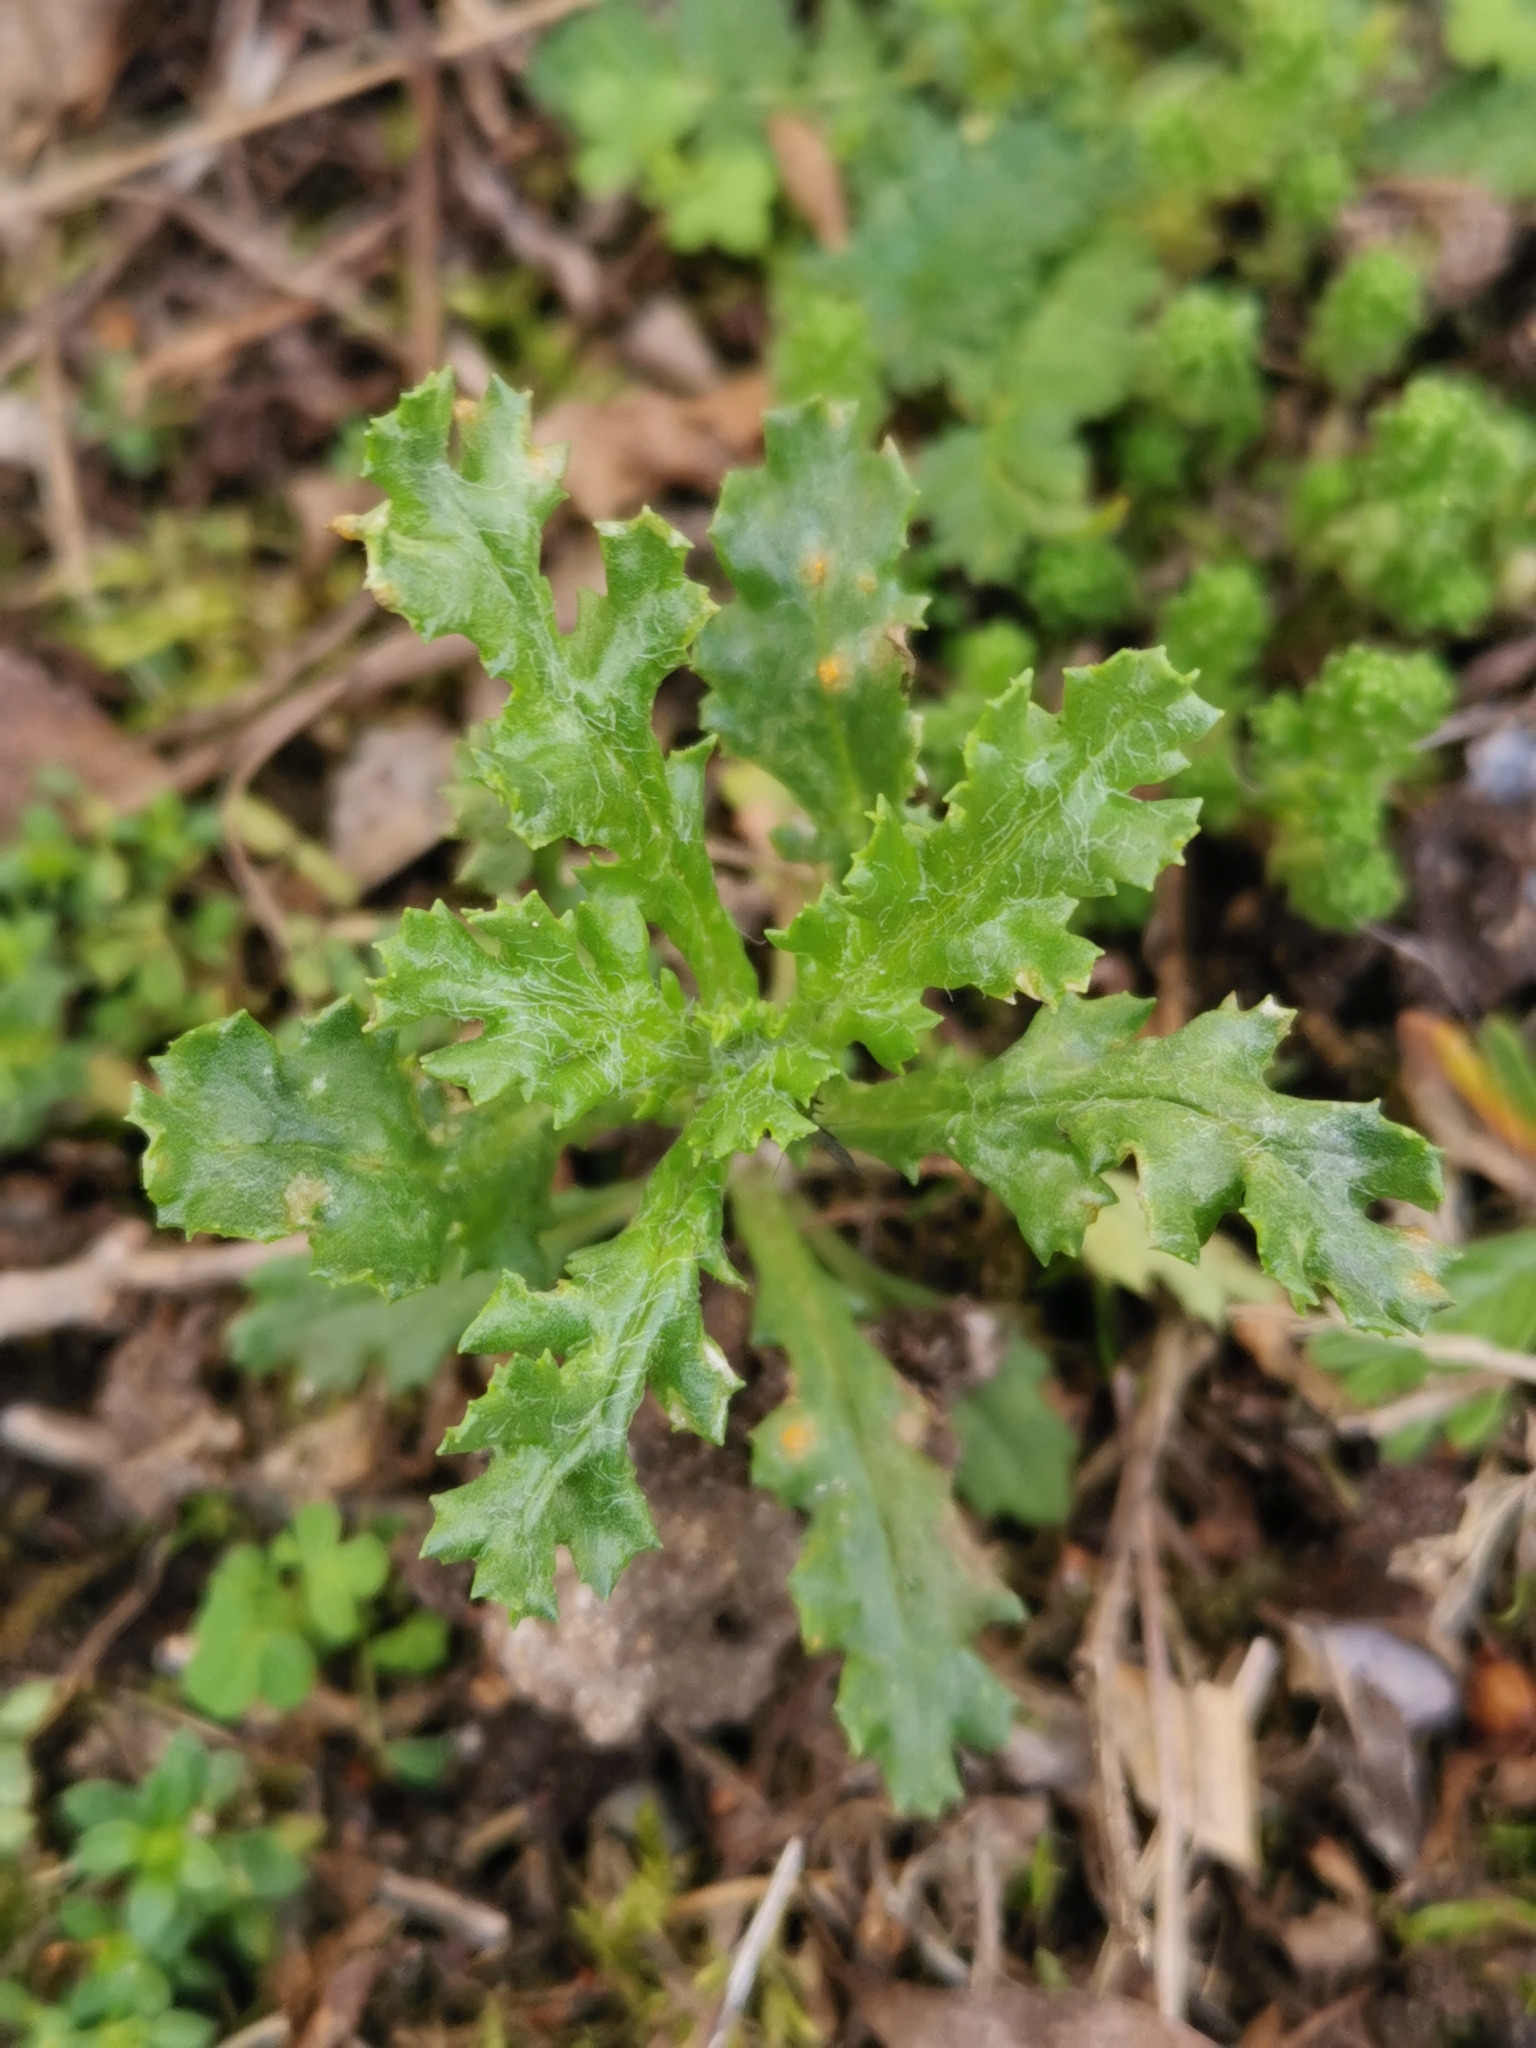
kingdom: Plantae
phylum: Tracheophyta
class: Magnoliopsida
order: Asterales
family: Asteraceae
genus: Senecio
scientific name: Senecio vulgaris
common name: Old-man-in-the-spring
